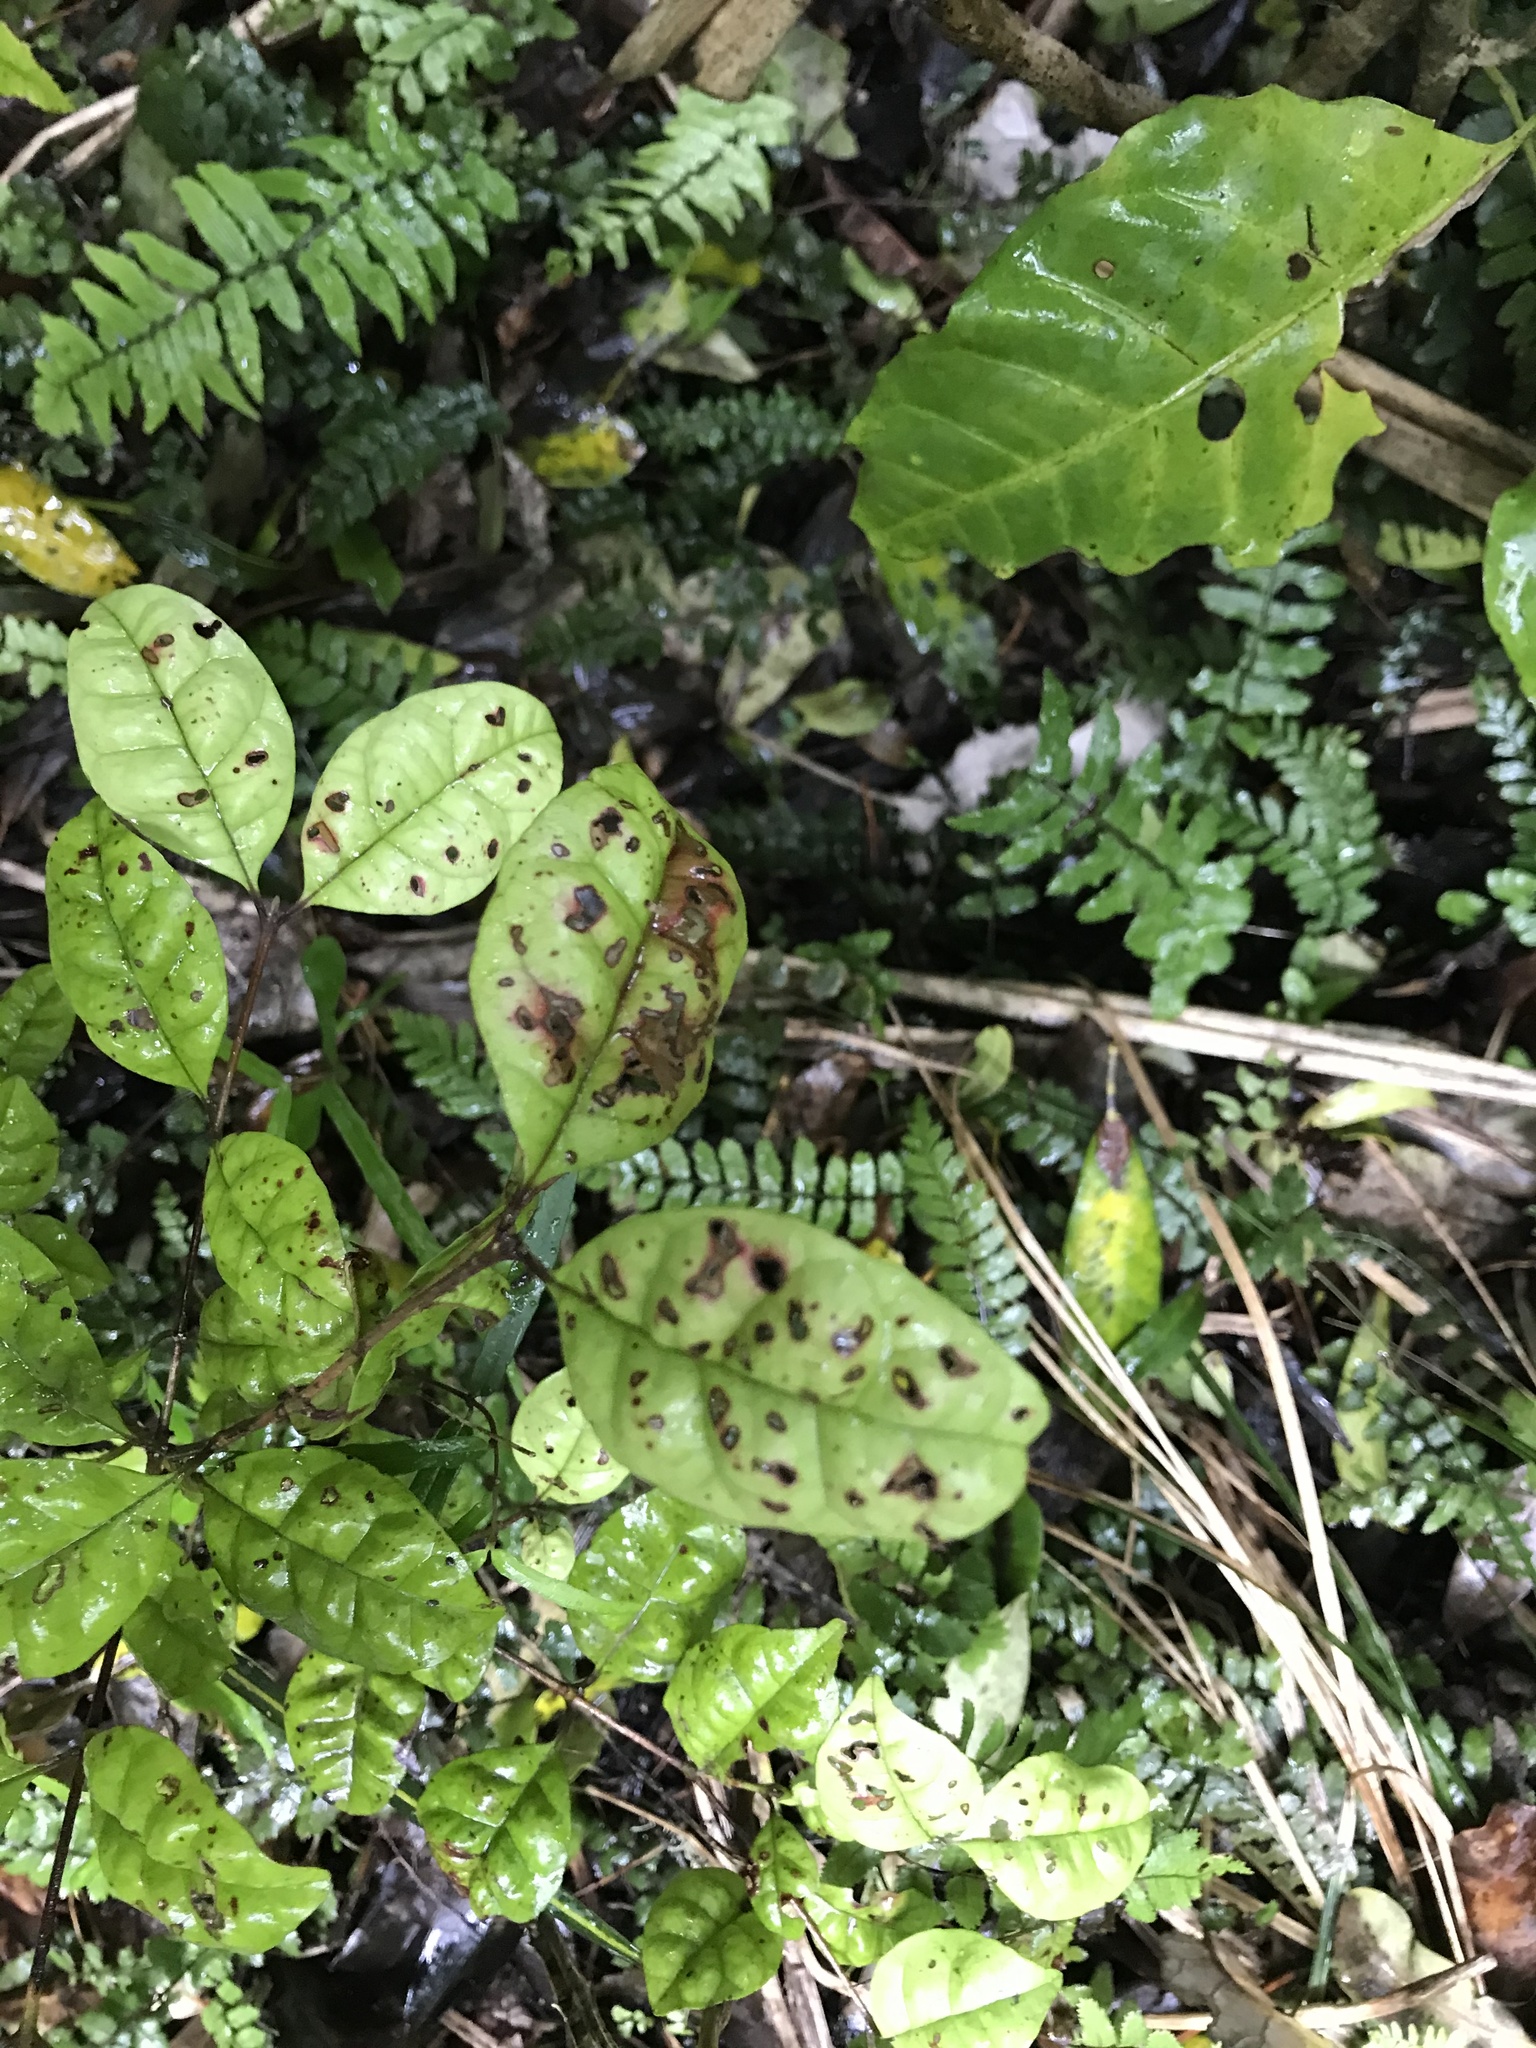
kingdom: Plantae
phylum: Tracheophyta
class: Magnoliopsida
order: Myrtales
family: Myrtaceae
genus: Lophomyrtus
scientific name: Lophomyrtus bullata
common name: Rama rama
